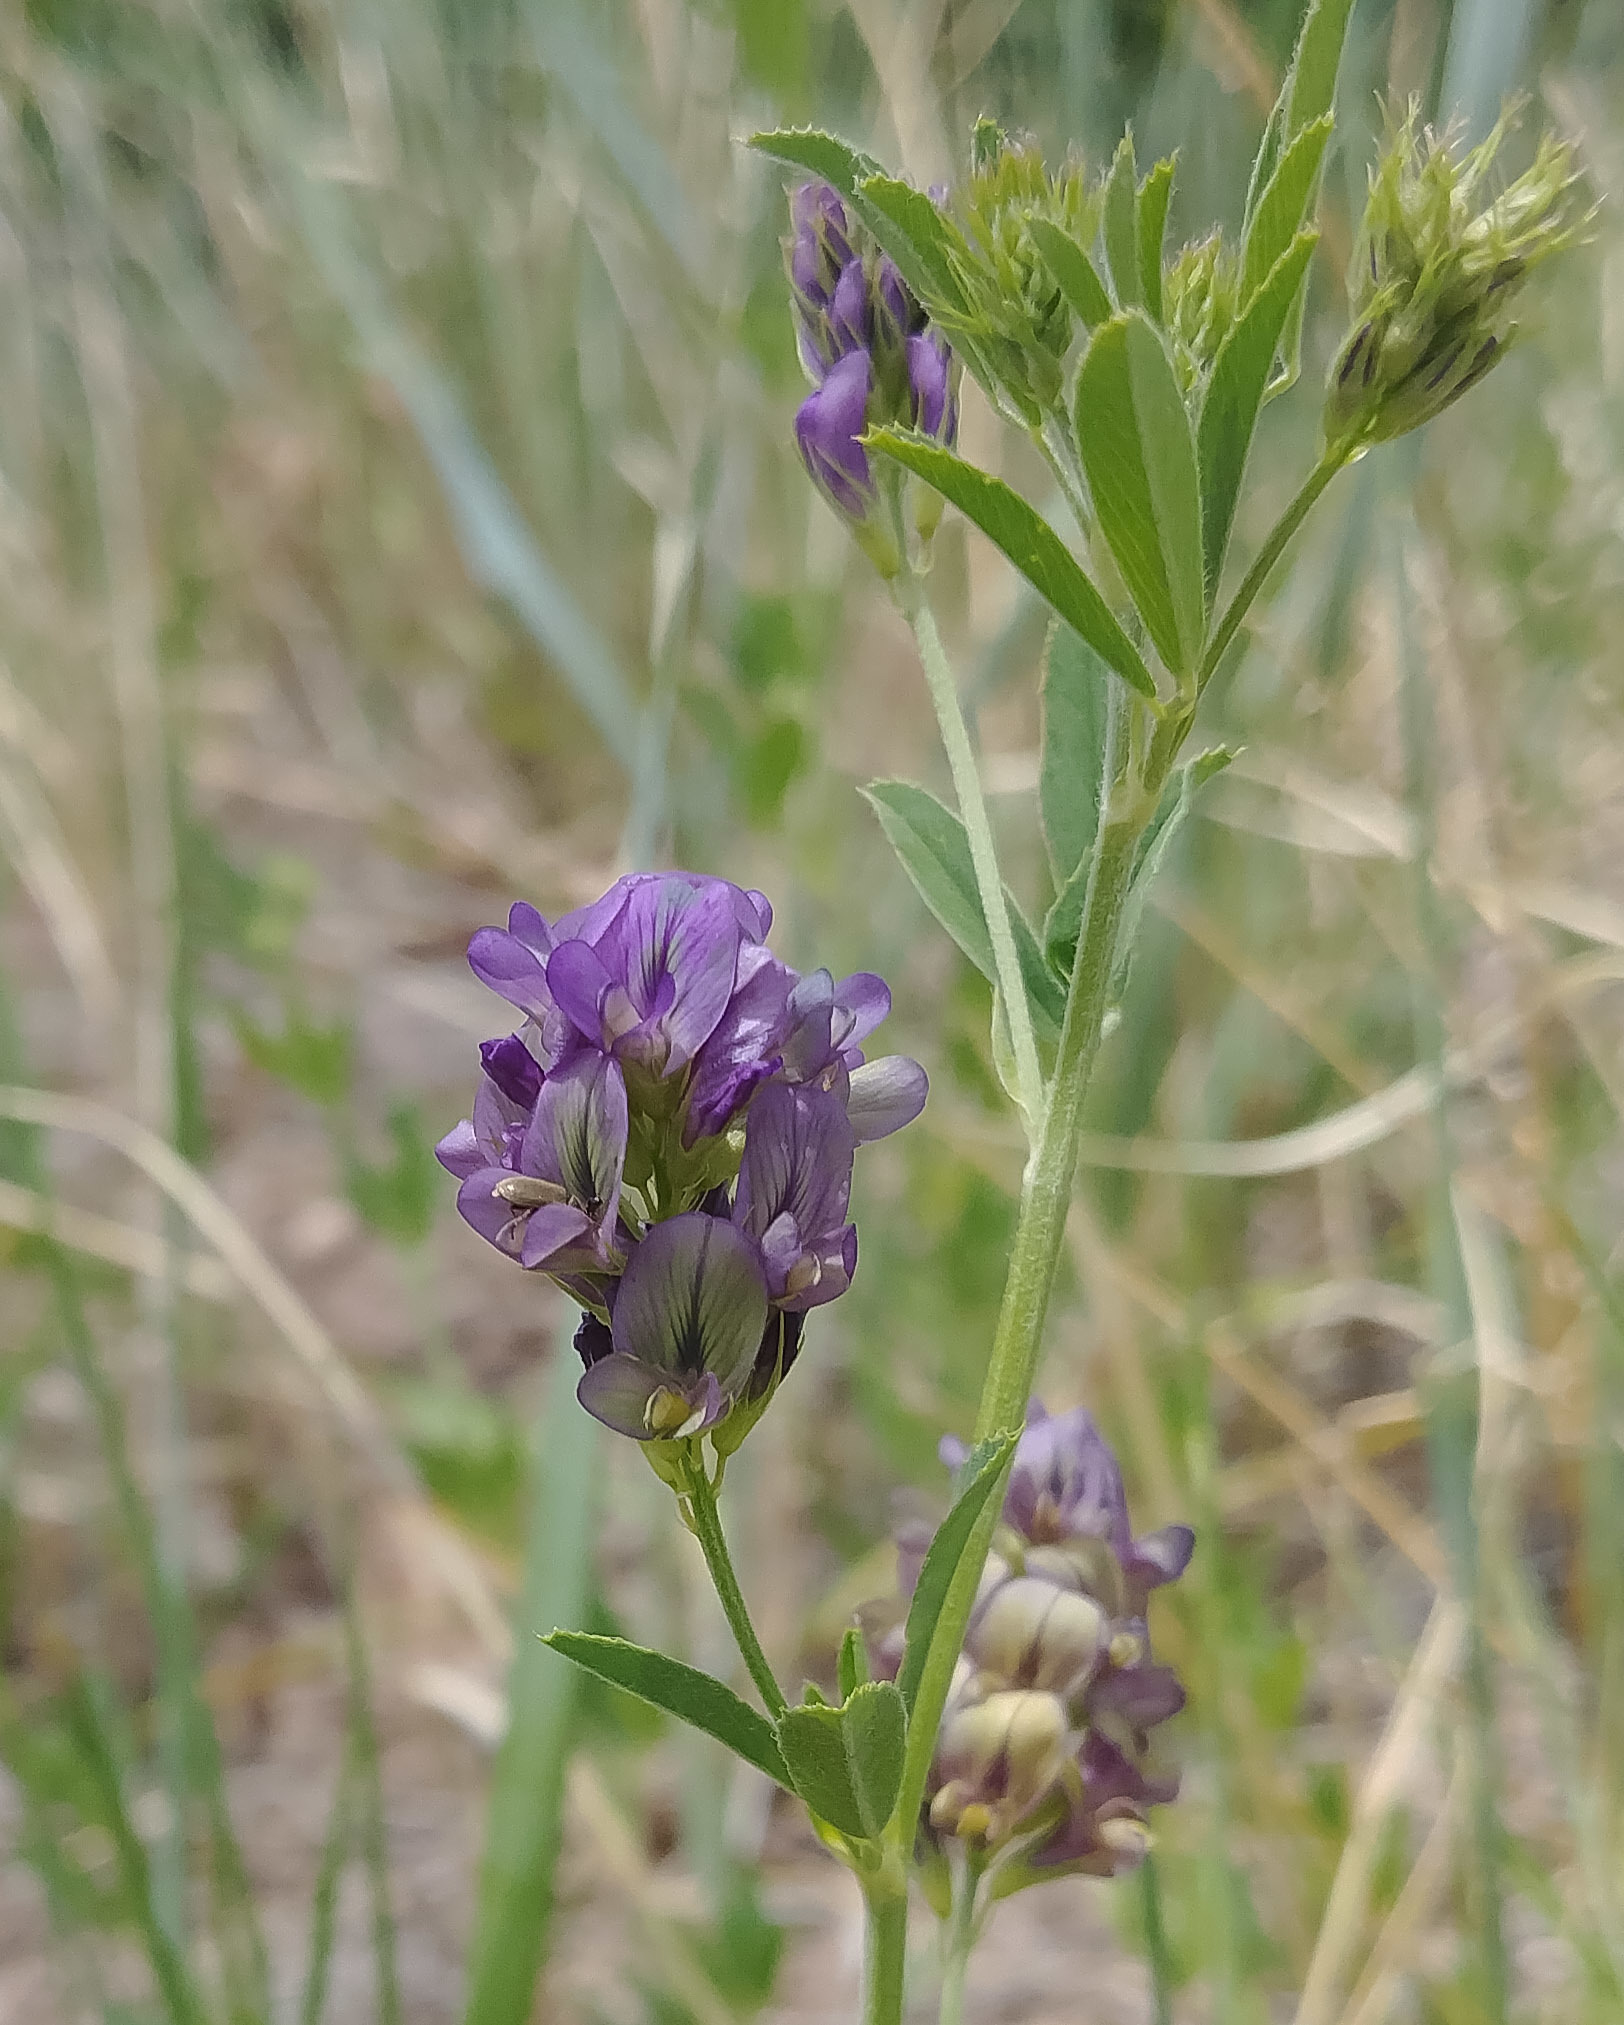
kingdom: Plantae
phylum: Tracheophyta
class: Magnoliopsida
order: Fabales
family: Fabaceae
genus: Medicago
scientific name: Medicago sativa
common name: Alfalfa
